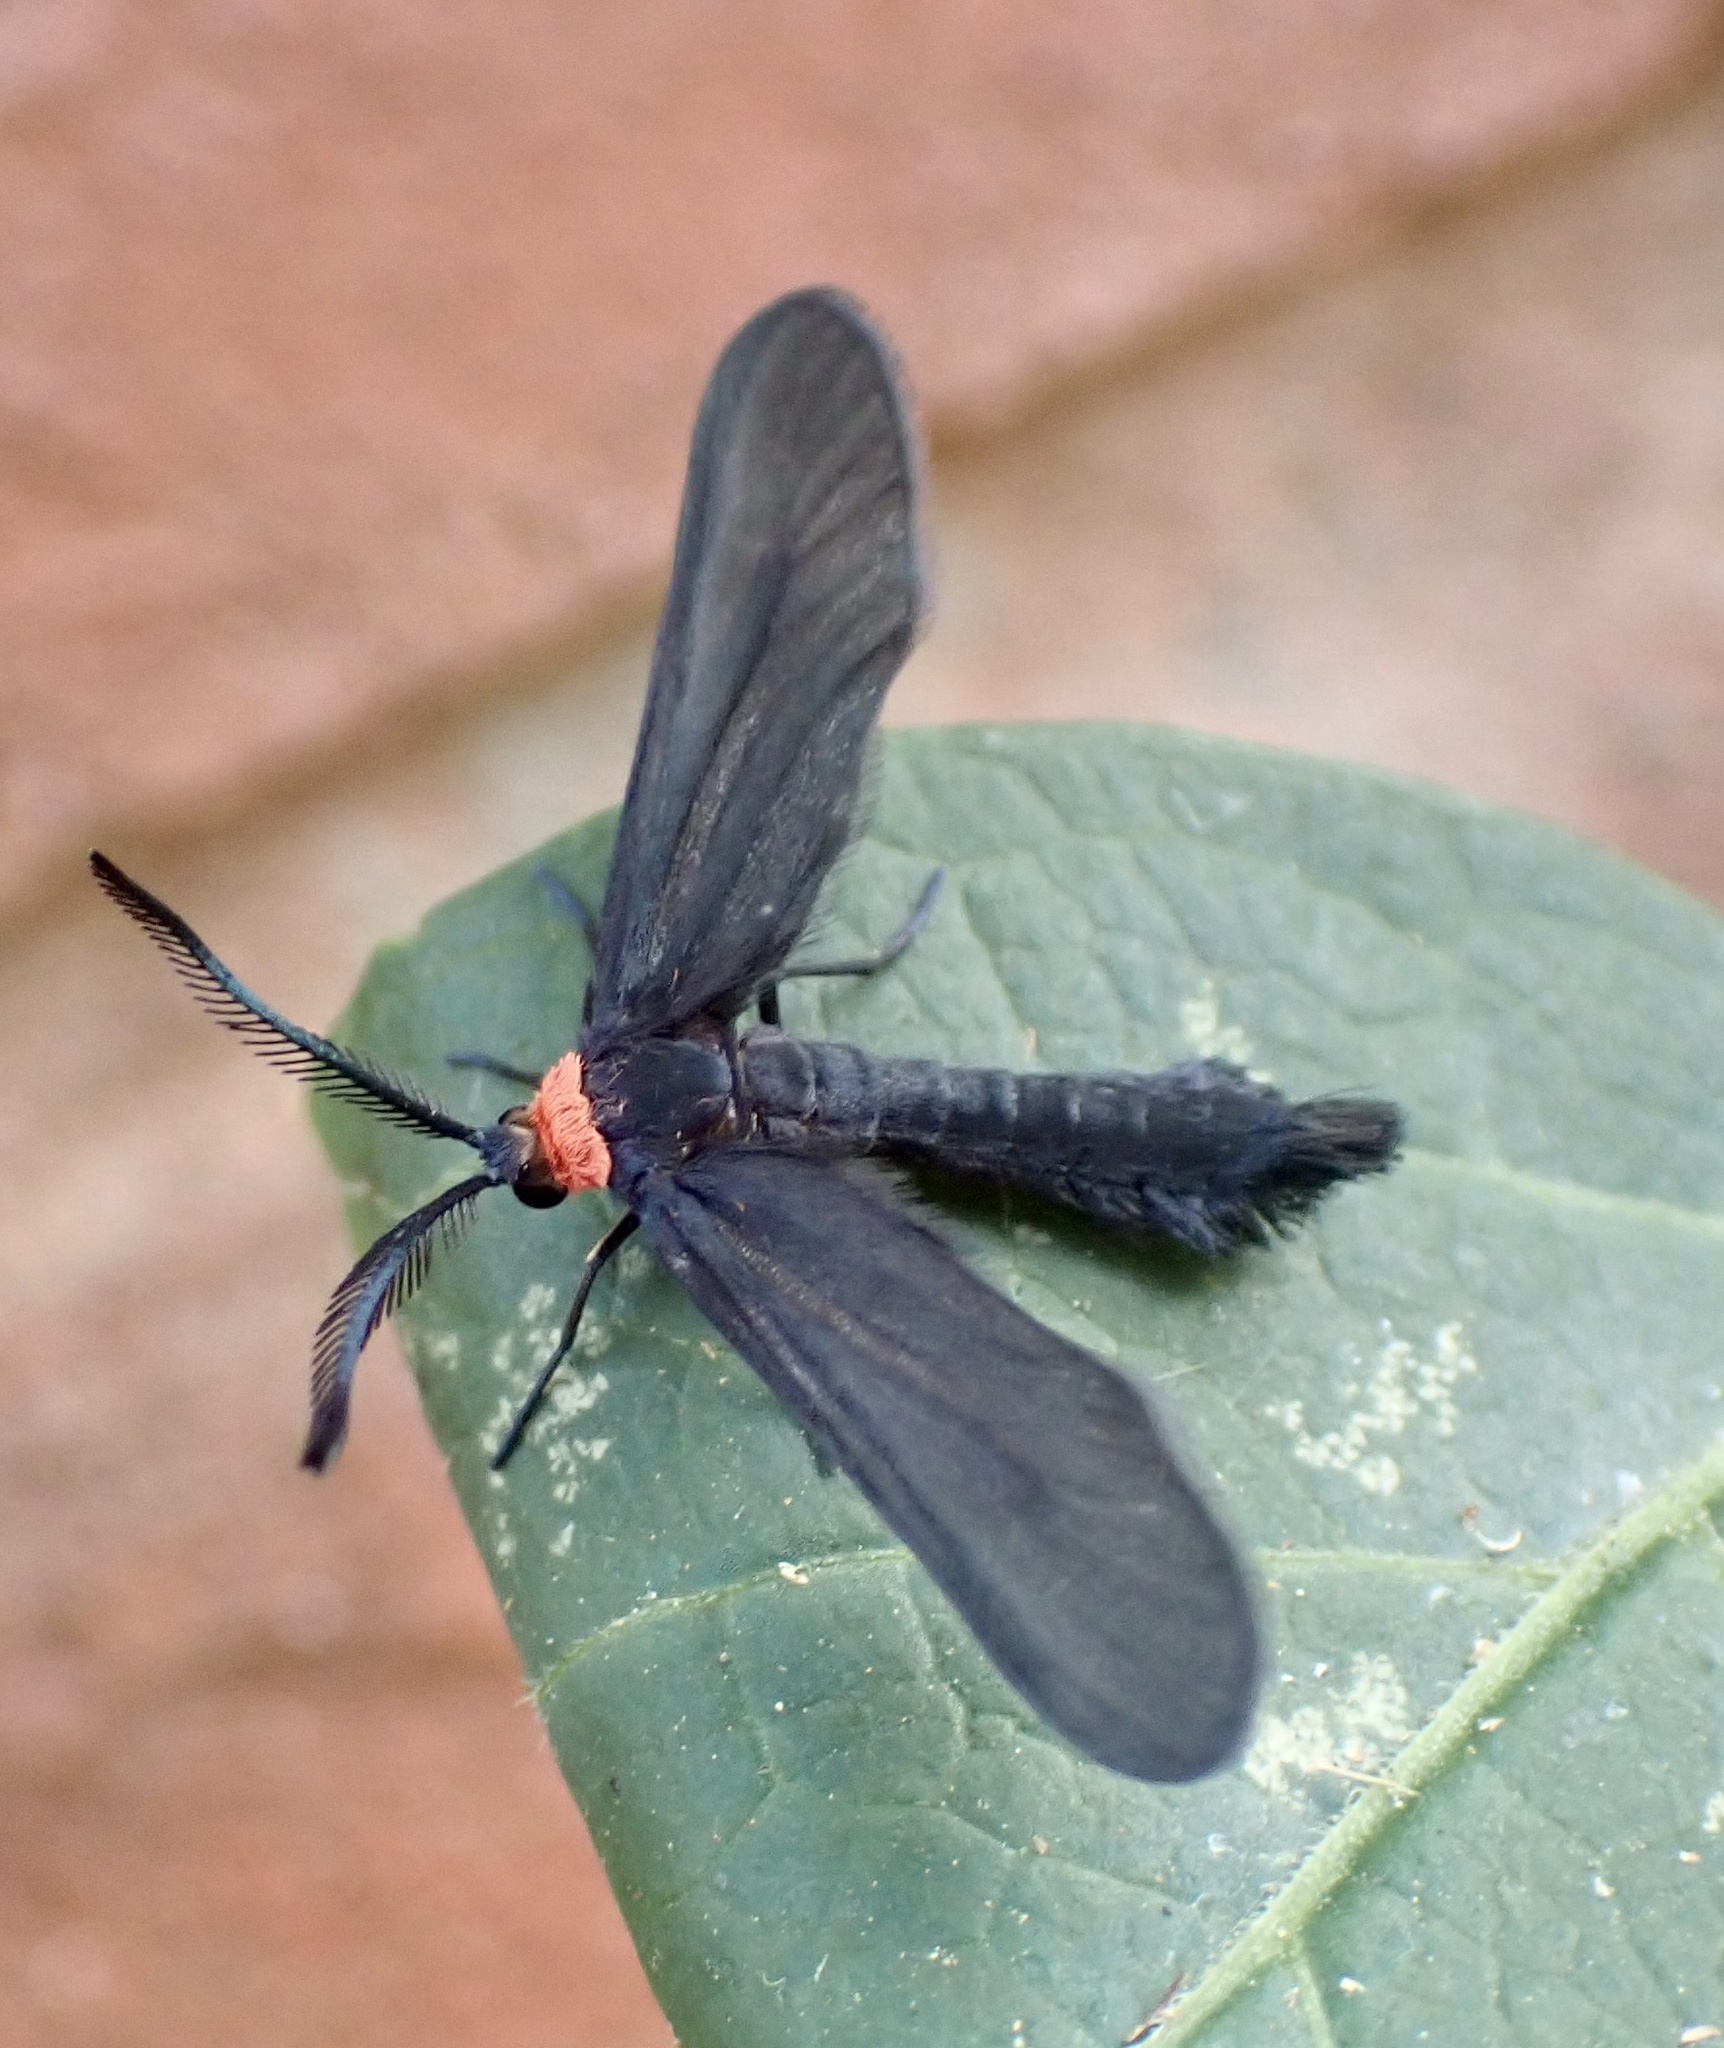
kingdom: Animalia
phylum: Arthropoda
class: Insecta
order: Lepidoptera
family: Zygaenidae
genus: Harrisina
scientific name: Harrisina americana
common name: Grapeleaf skeletonizer moth
